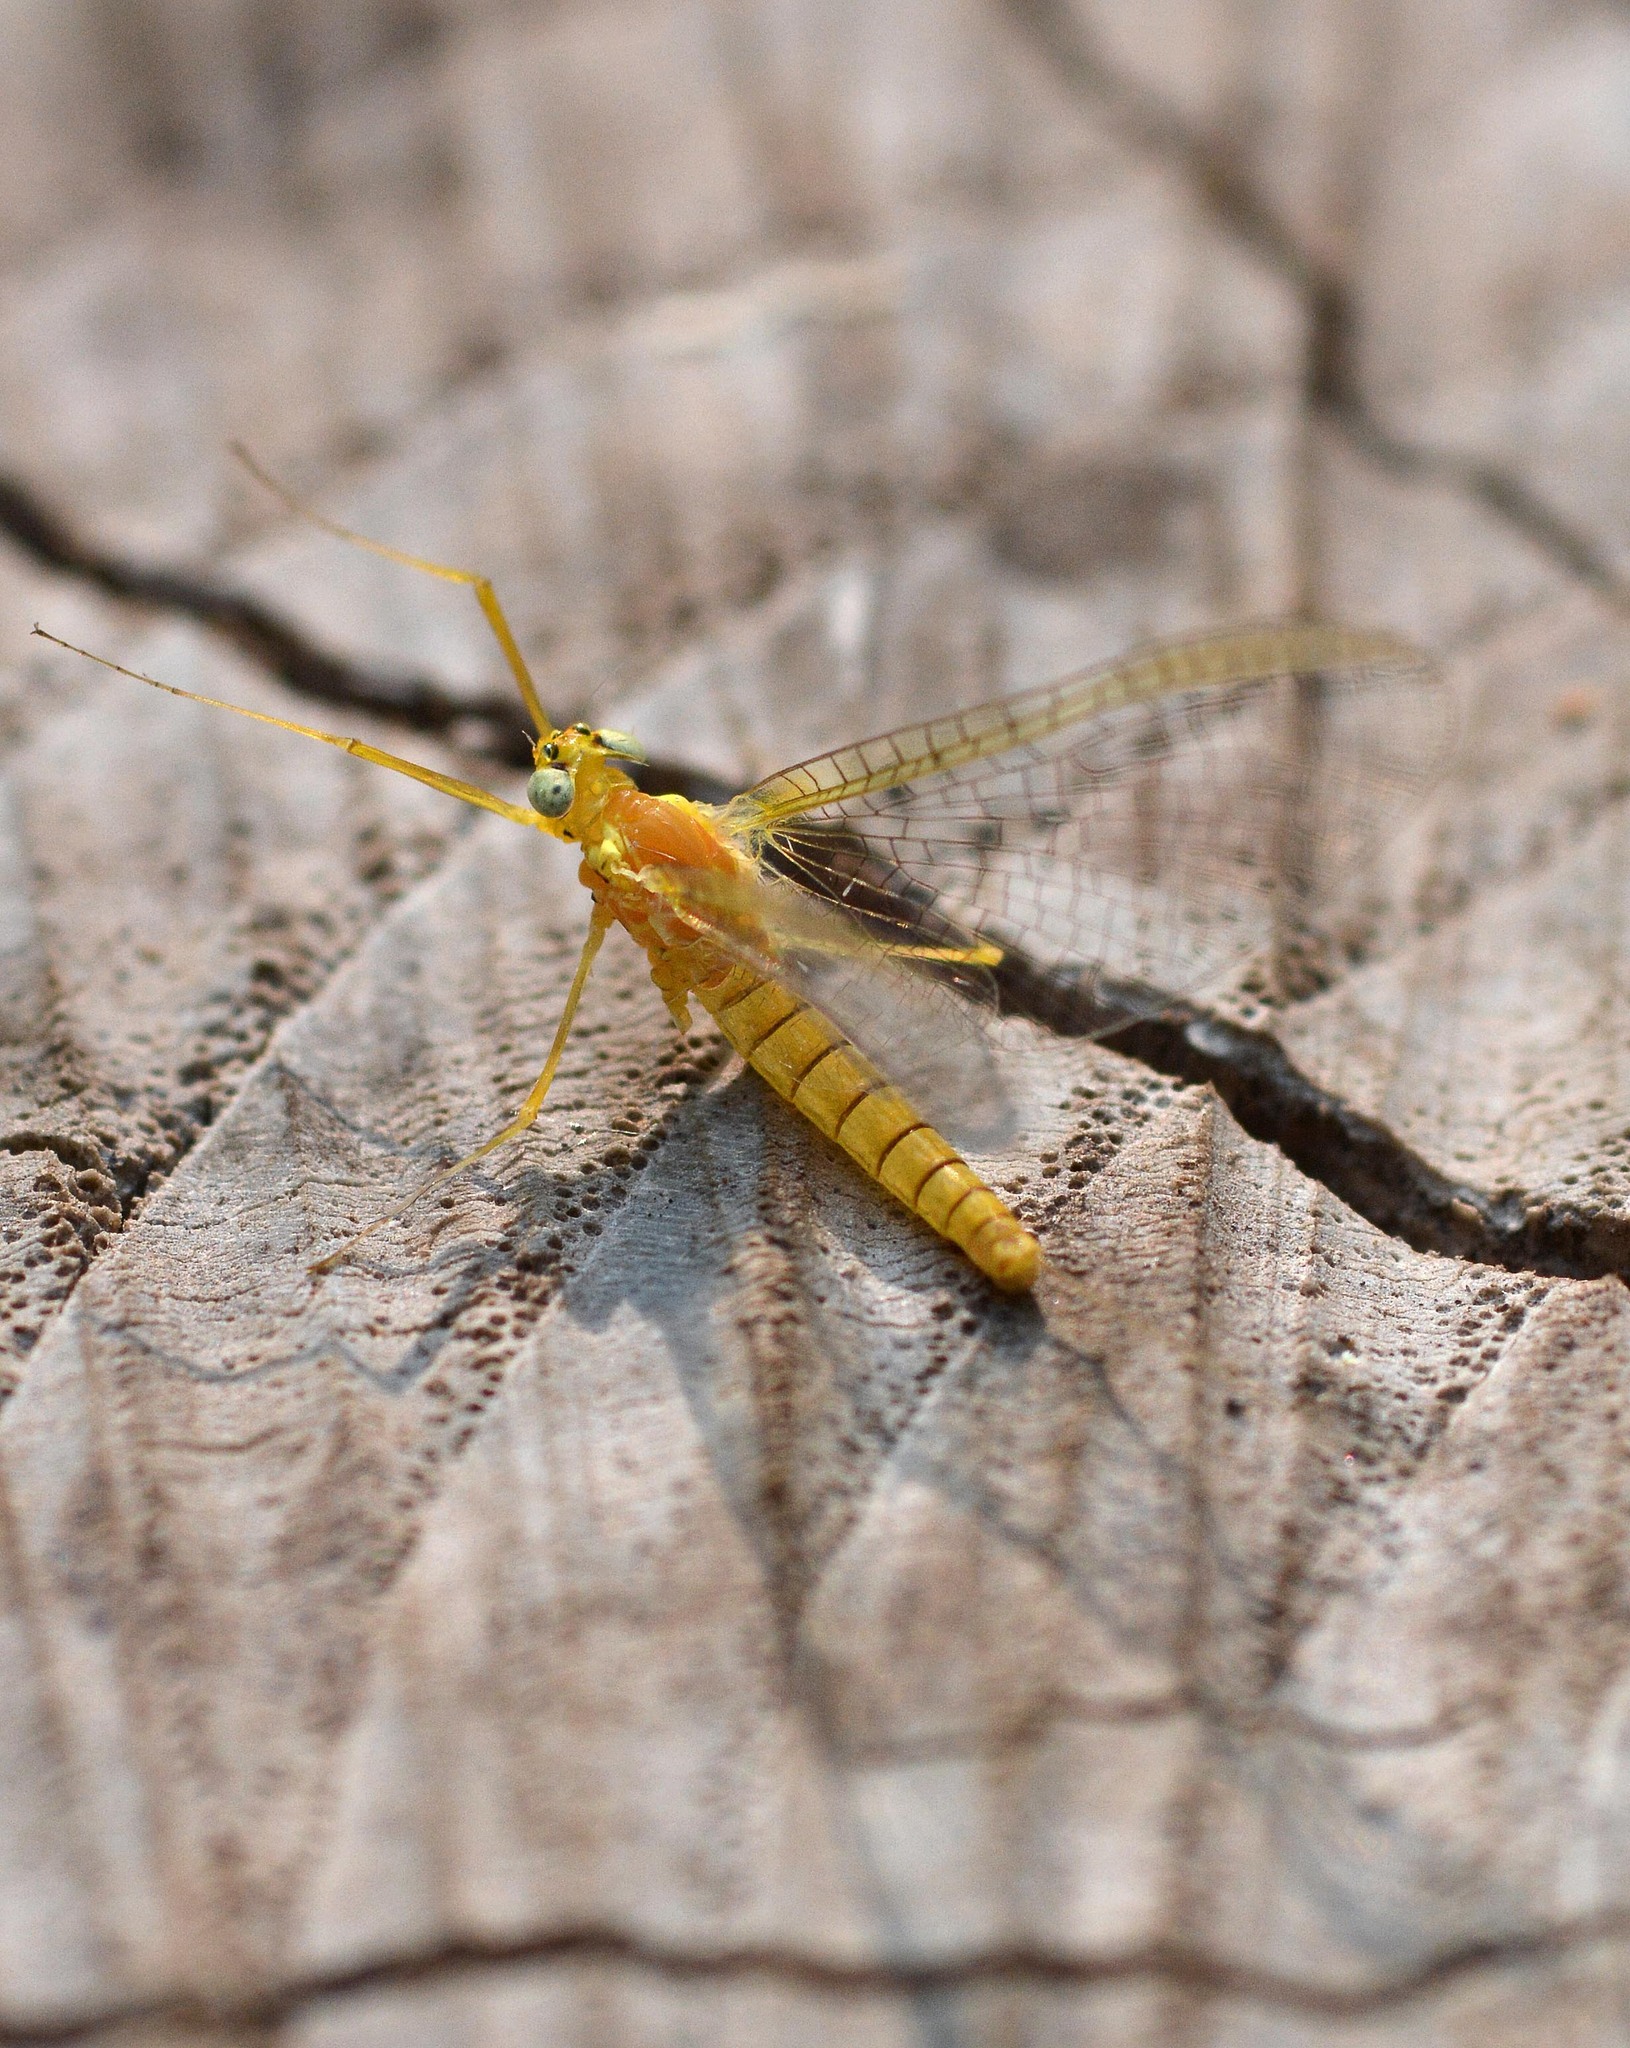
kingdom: Animalia
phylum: Arthropoda
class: Insecta
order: Ephemeroptera
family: Heptageniidae
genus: Heptagenia
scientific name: Heptagenia sulphurea
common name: Yellow may dun
